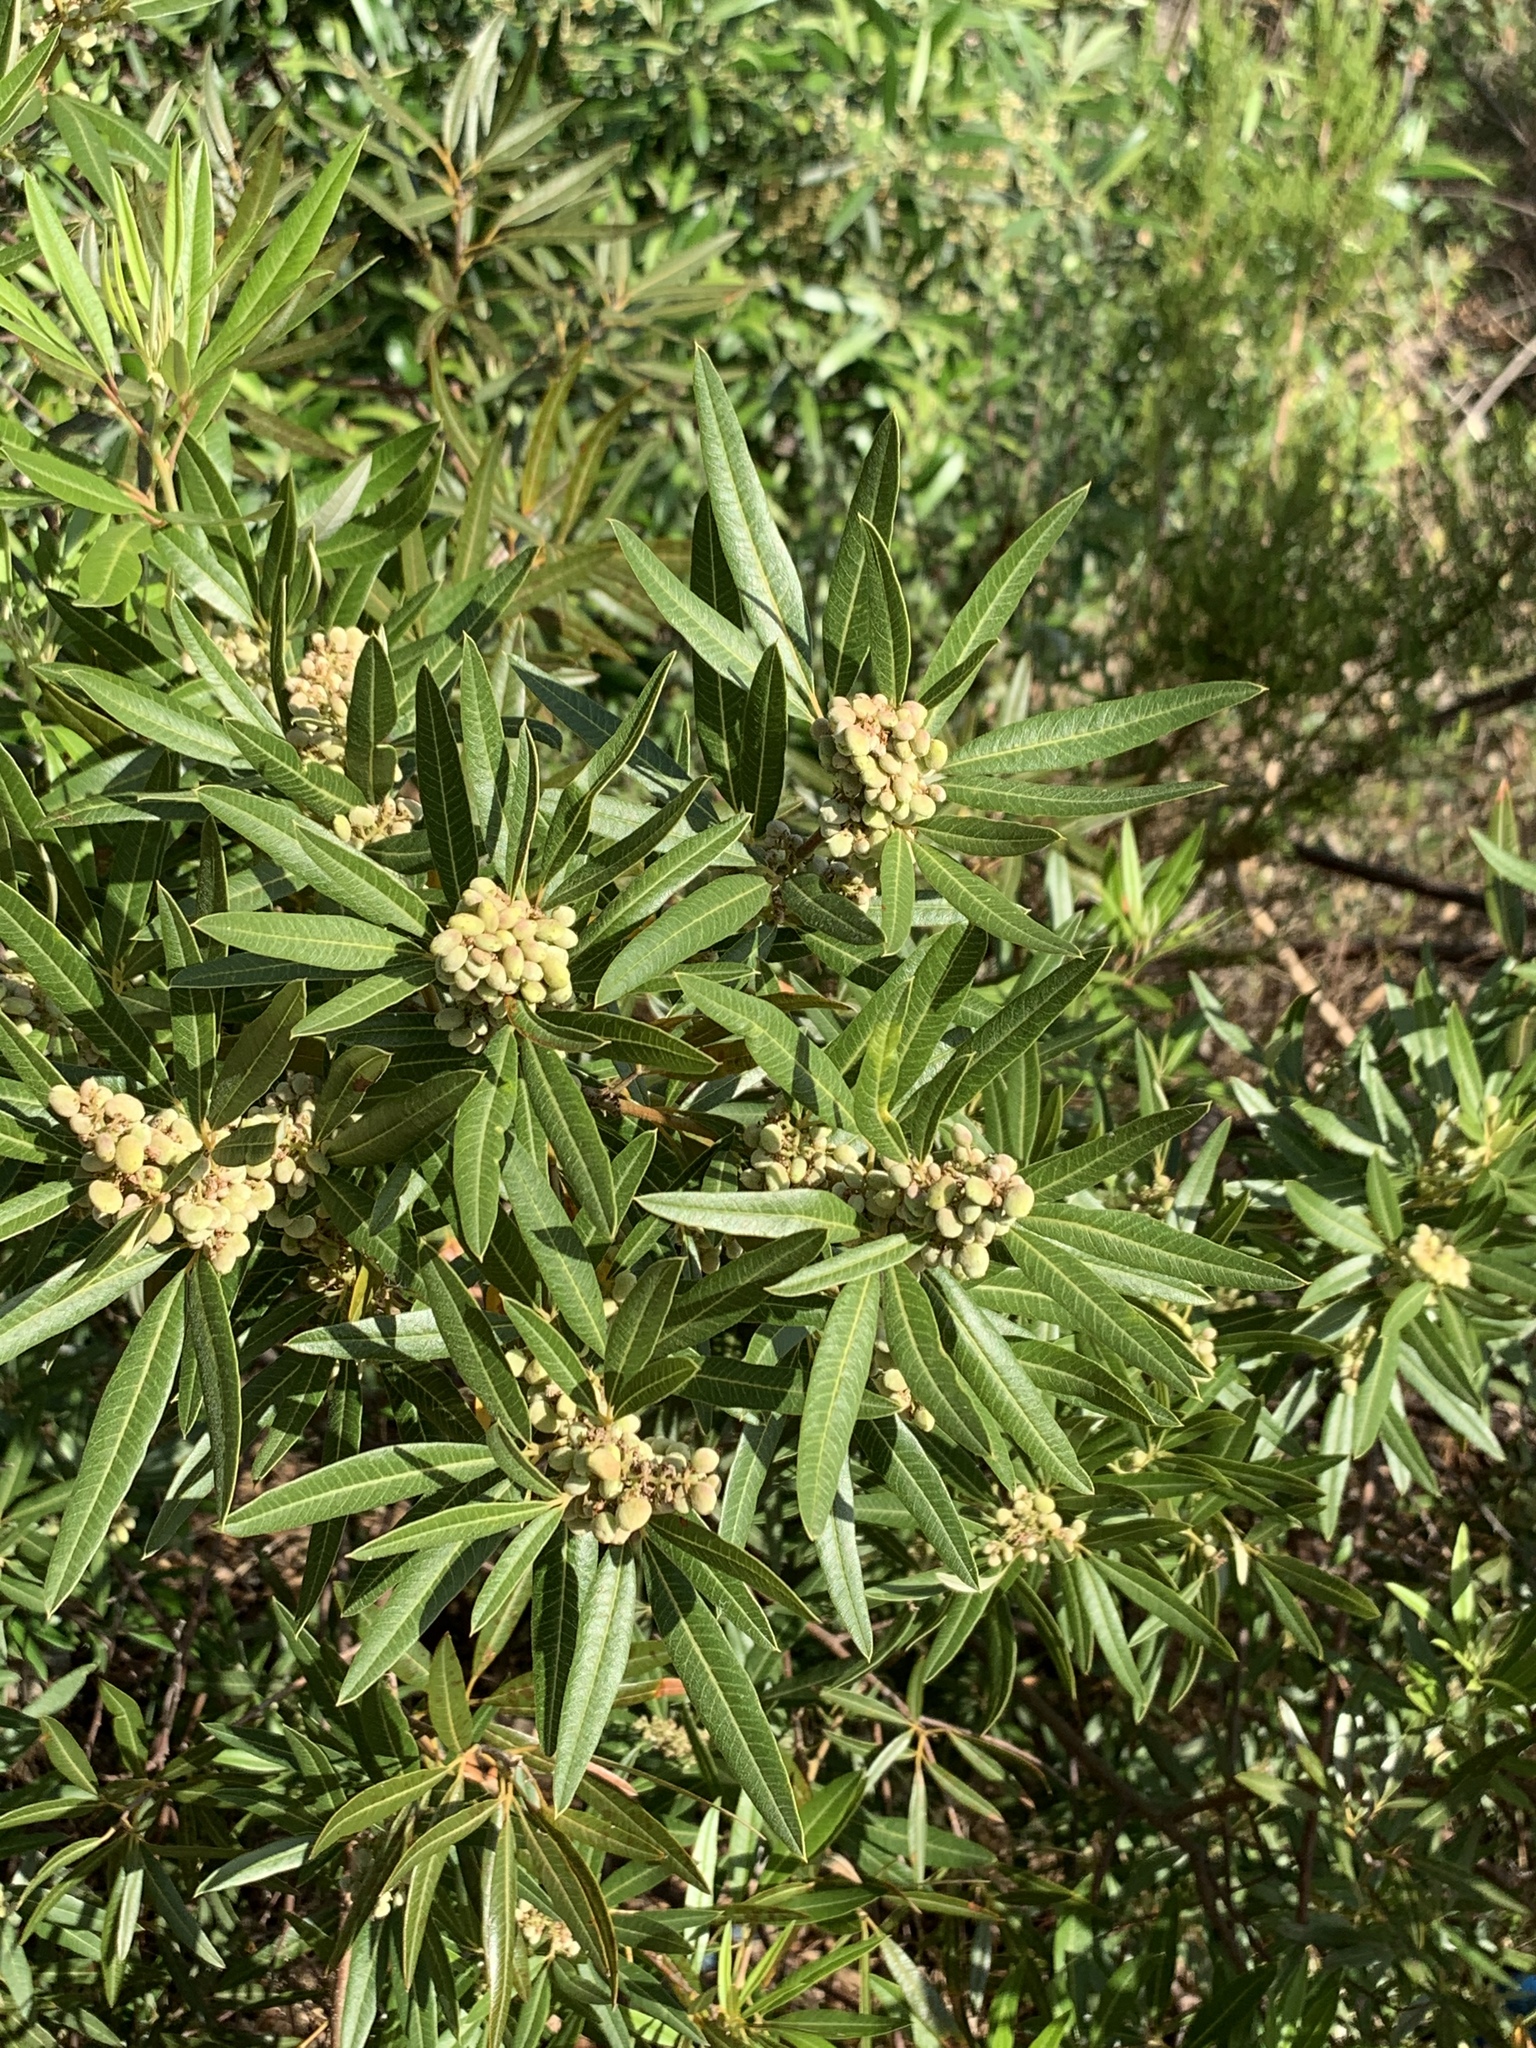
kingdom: Plantae
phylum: Tracheophyta
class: Magnoliopsida
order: Sapindales
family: Anacardiaceae
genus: Searsia
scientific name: Searsia angustifolia
